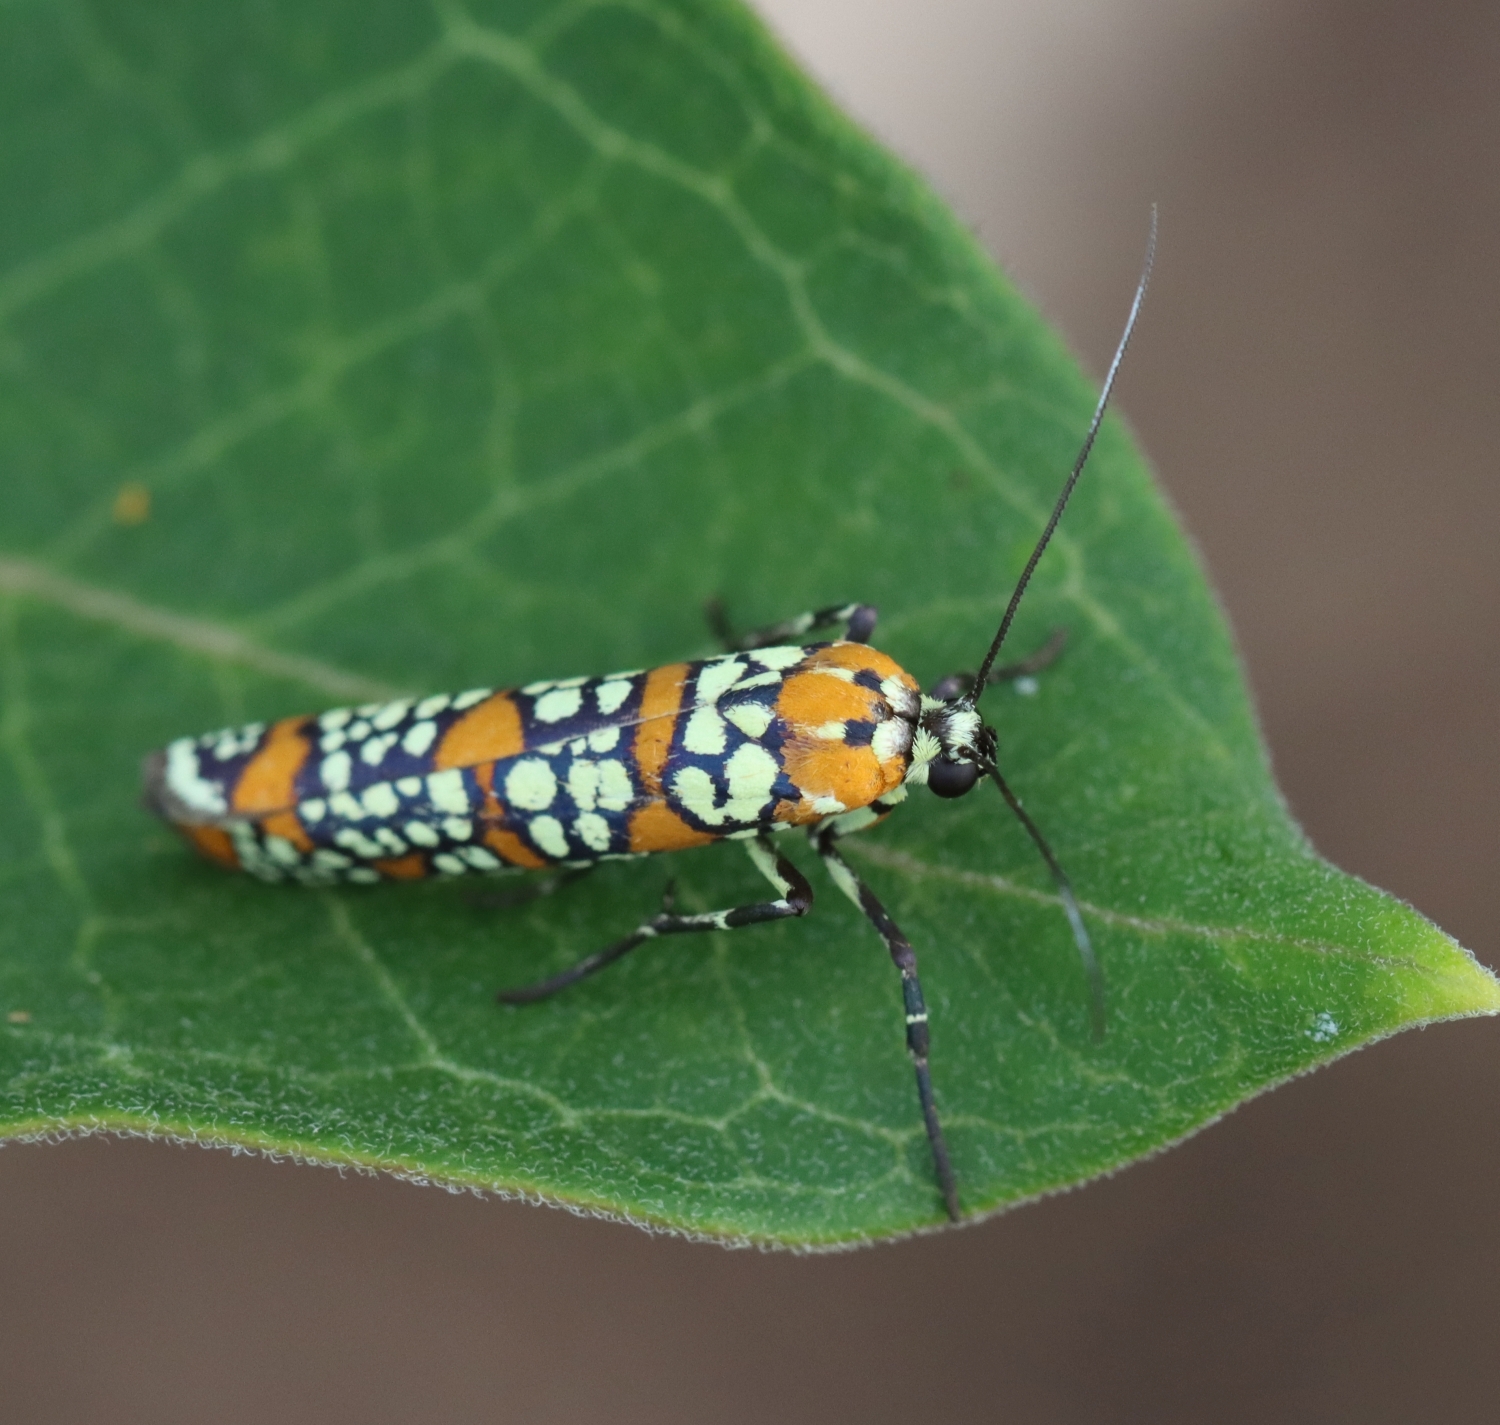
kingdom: Animalia
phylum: Arthropoda
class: Insecta
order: Lepidoptera
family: Attevidae
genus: Atteva
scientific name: Atteva punctella
